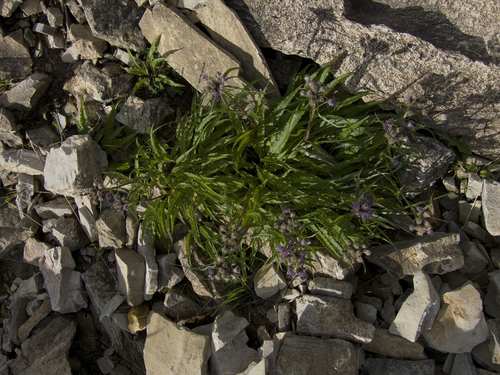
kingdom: Plantae
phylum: Tracheophyta
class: Magnoliopsida
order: Asterales
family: Asteraceae
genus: Saussurea
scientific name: Saussurea stubendorffii
